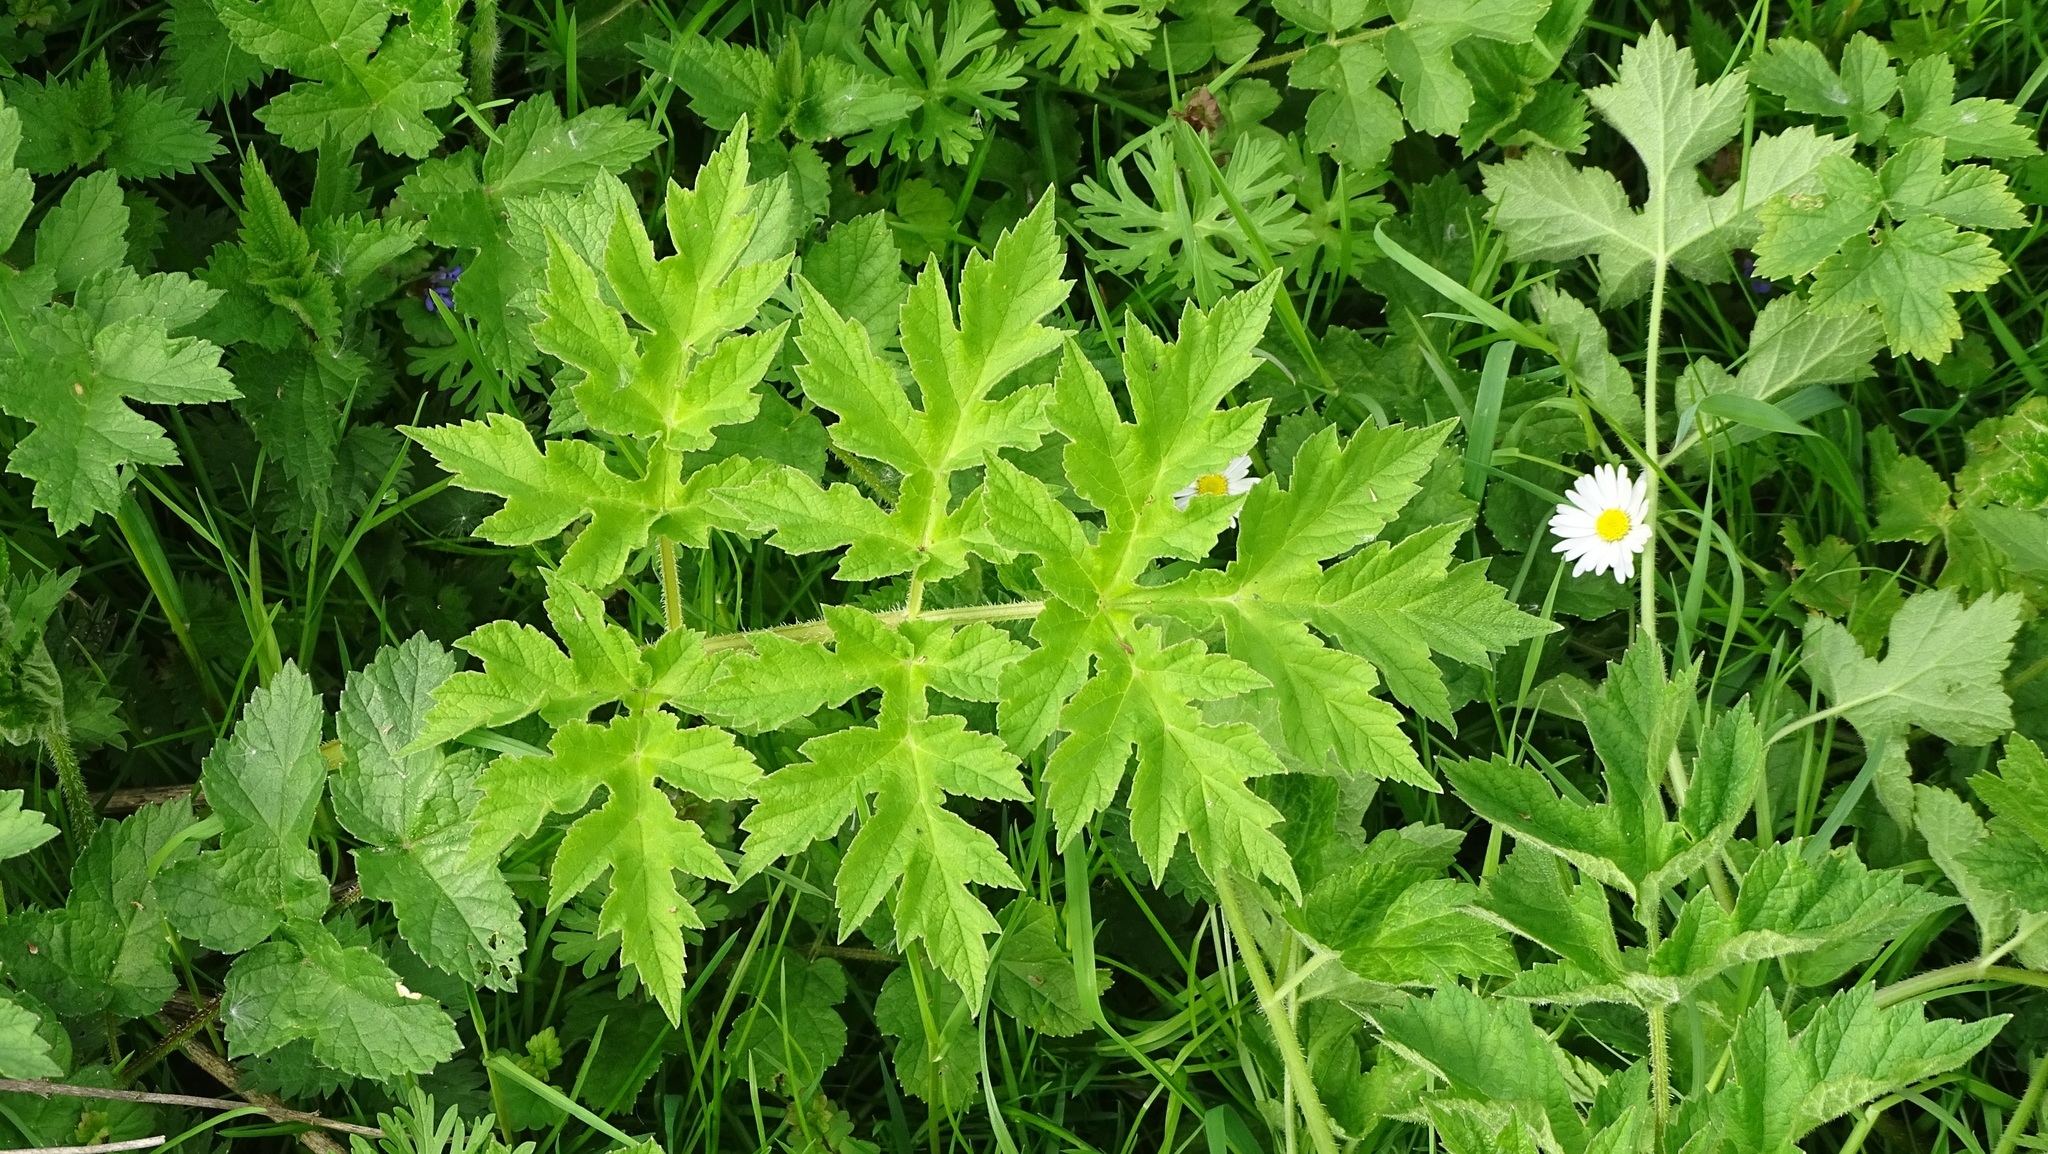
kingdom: Plantae
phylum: Tracheophyta
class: Magnoliopsida
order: Apiales
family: Apiaceae
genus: Heracleum
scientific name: Heracleum sphondylium
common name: Hogweed
